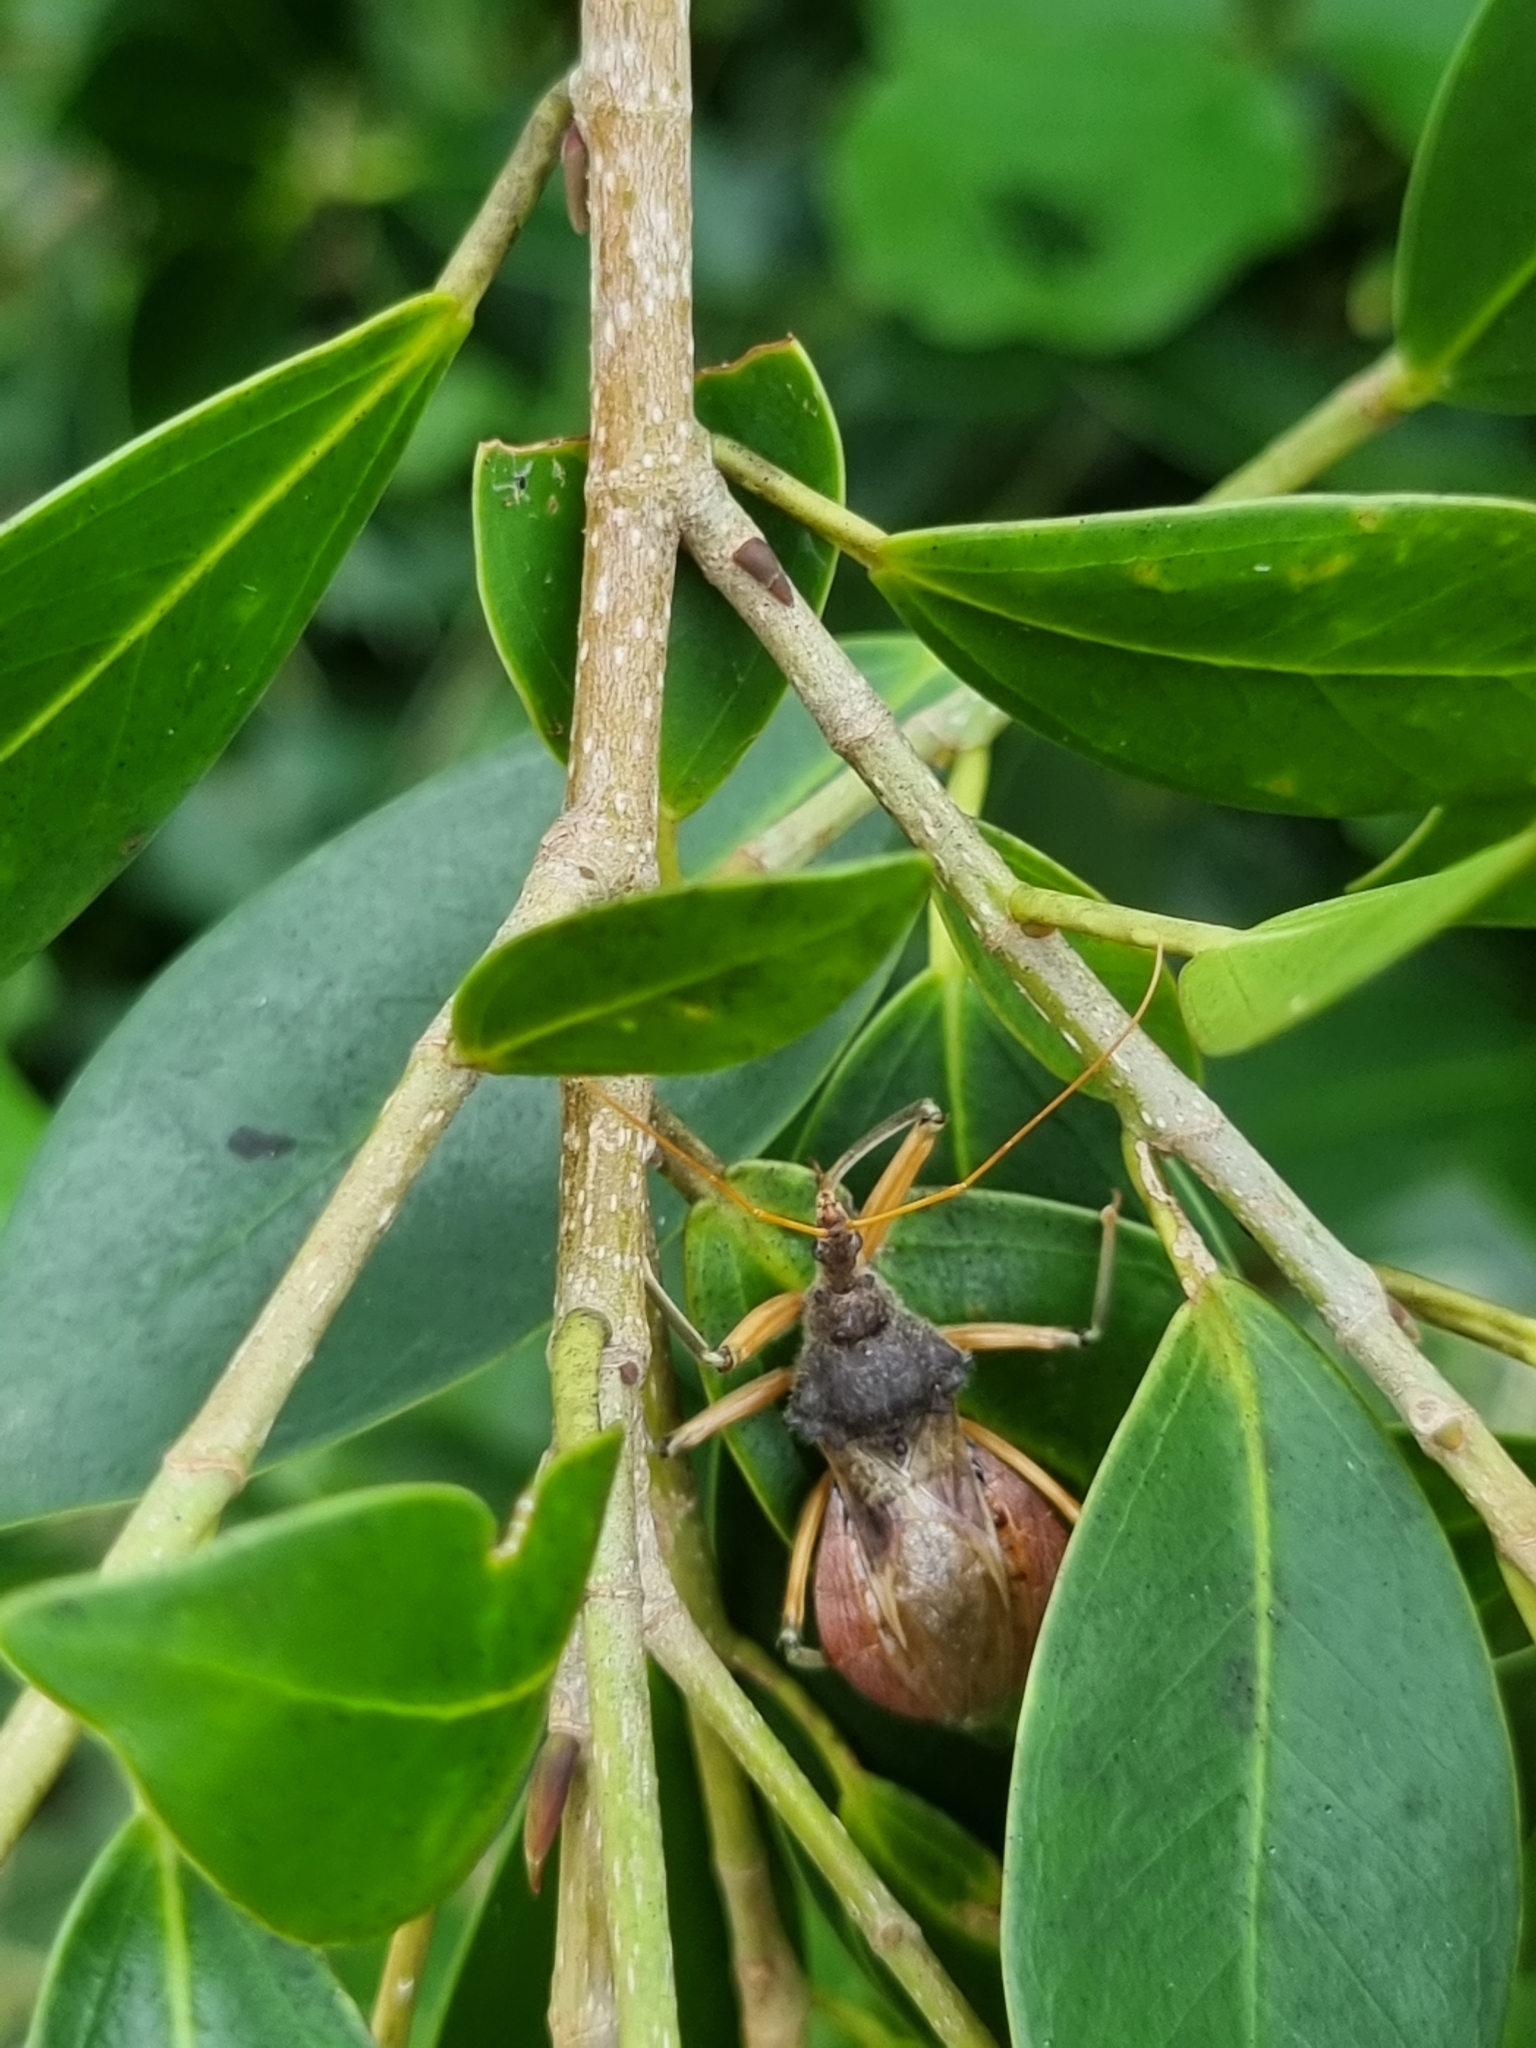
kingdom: Animalia
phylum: Arthropoda
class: Insecta
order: Hemiptera
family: Reduviidae
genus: Pristhesancus
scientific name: Pristhesancus plagipennis
